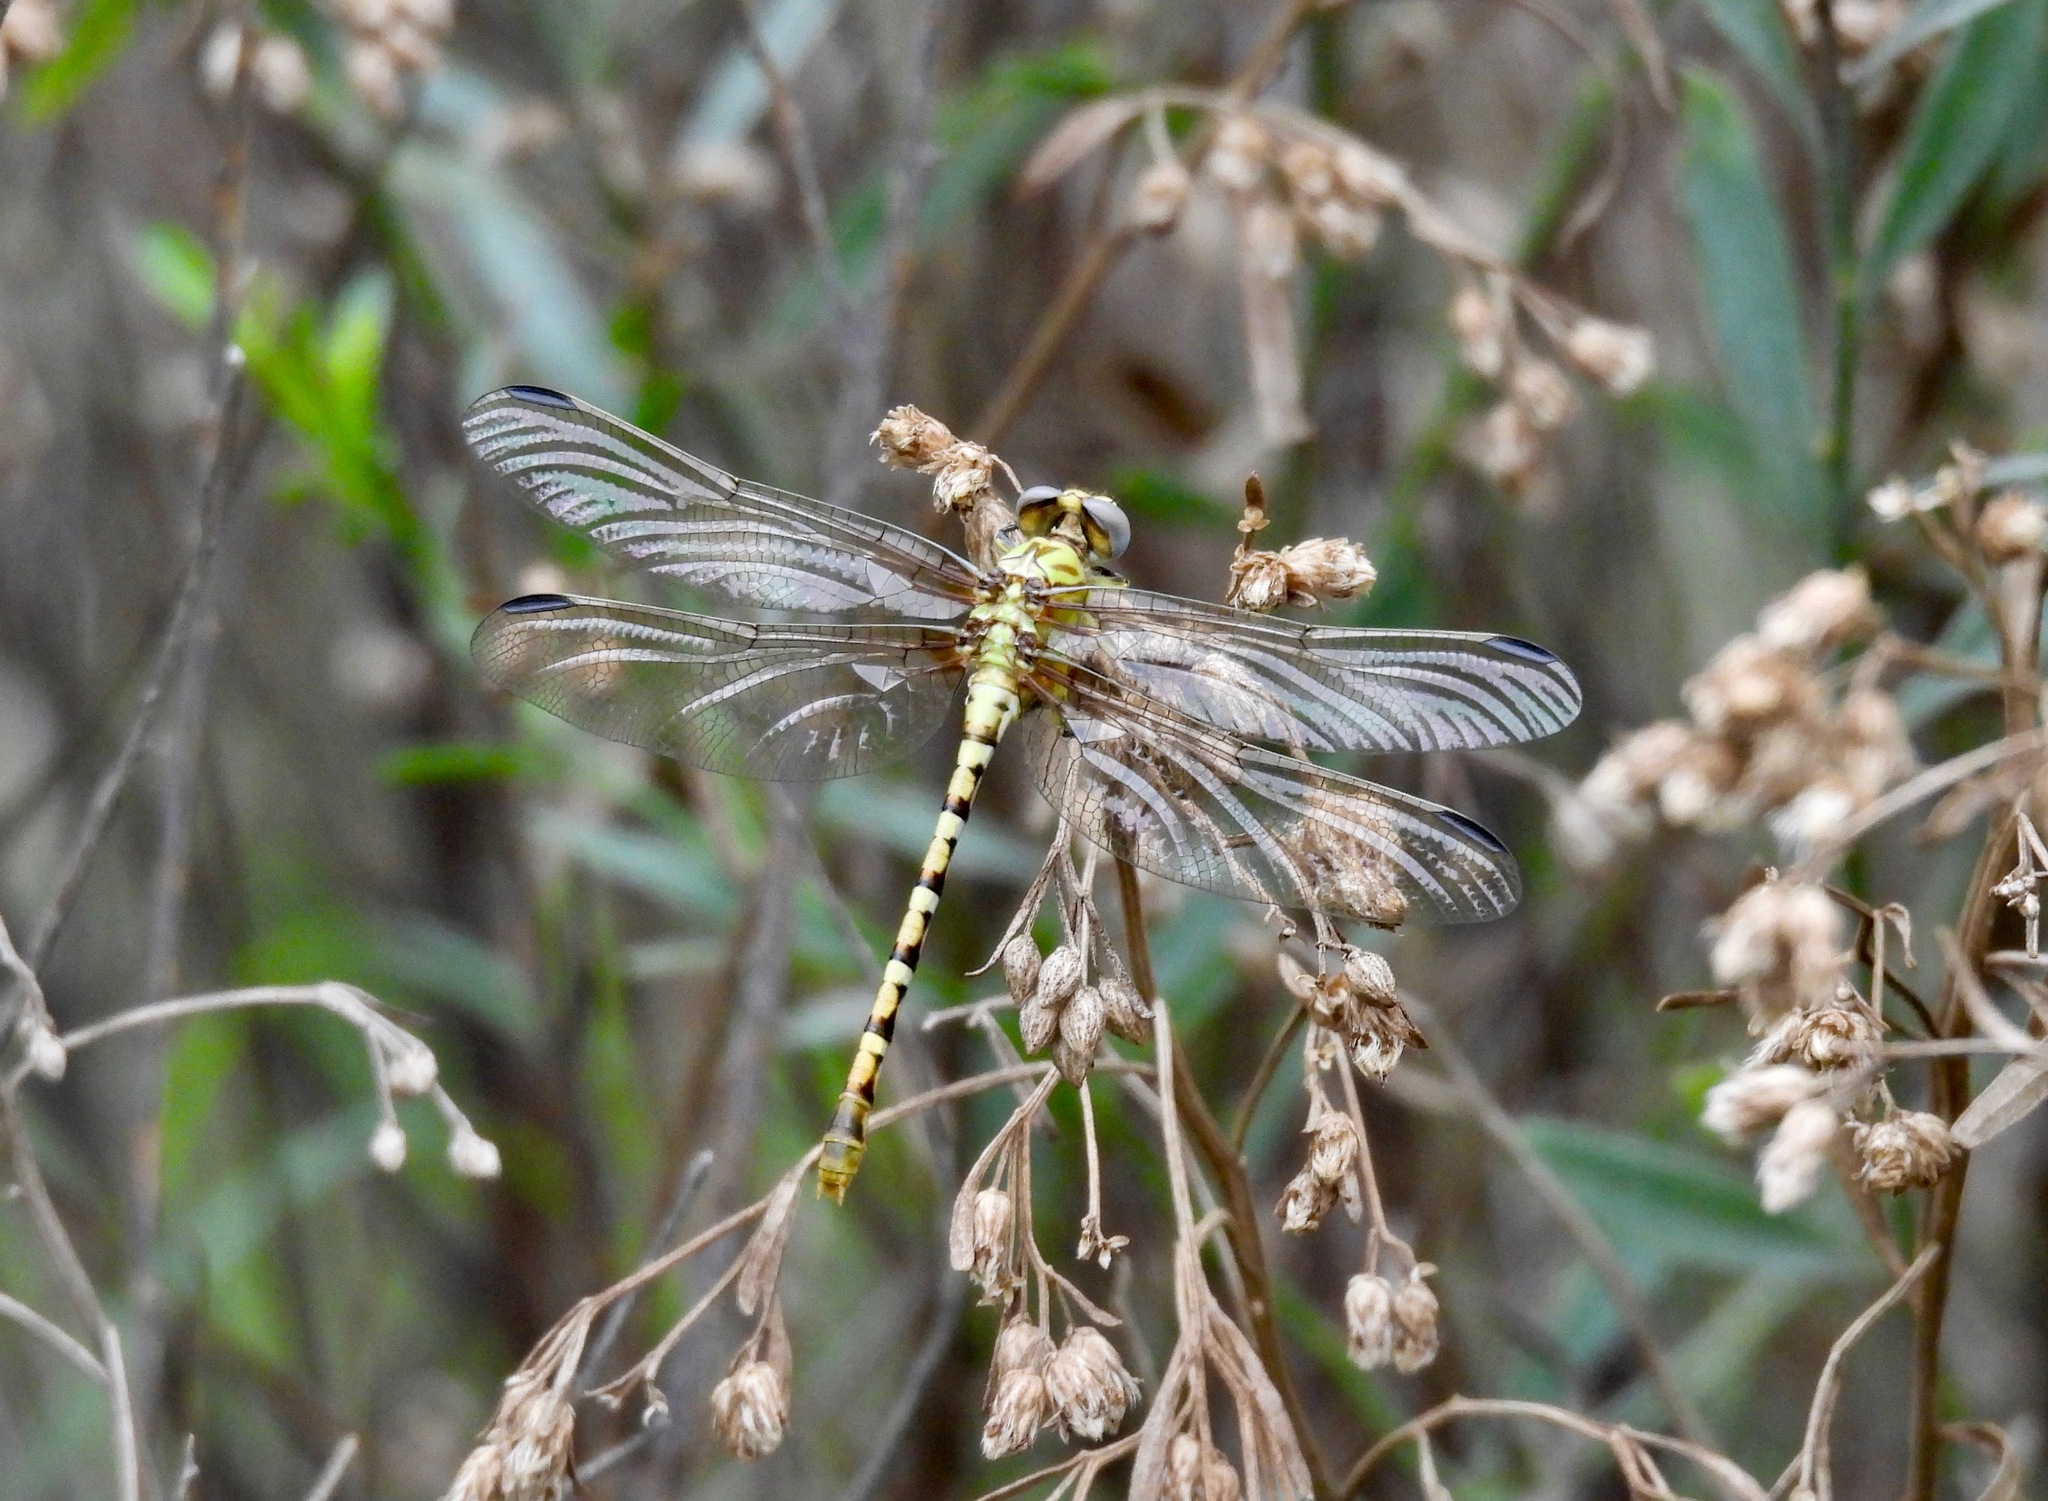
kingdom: Animalia
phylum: Arthropoda
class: Insecta
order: Odonata
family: Gomphidae
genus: Erpetogomphus
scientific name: Erpetogomphus designatus
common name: Eastern ringtail
